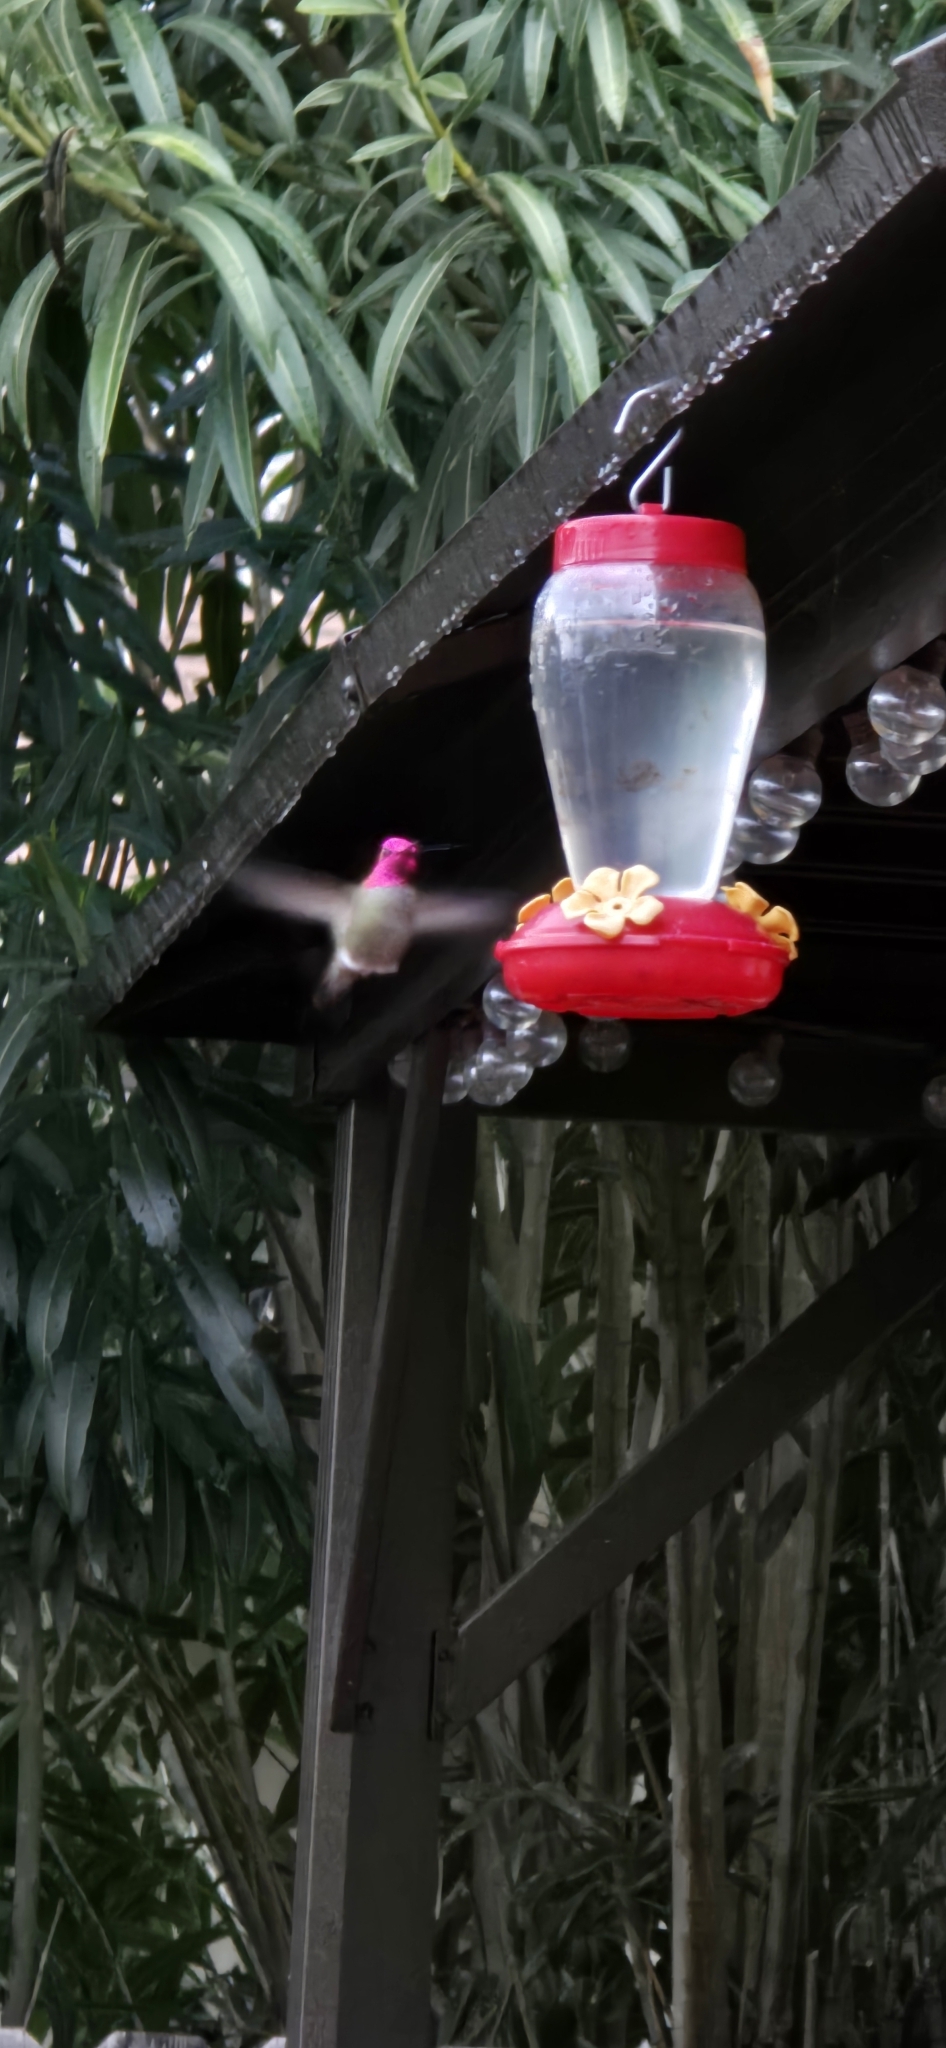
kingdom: Animalia
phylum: Chordata
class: Aves
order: Apodiformes
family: Trochilidae
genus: Calypte
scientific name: Calypte anna
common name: Anna's hummingbird
